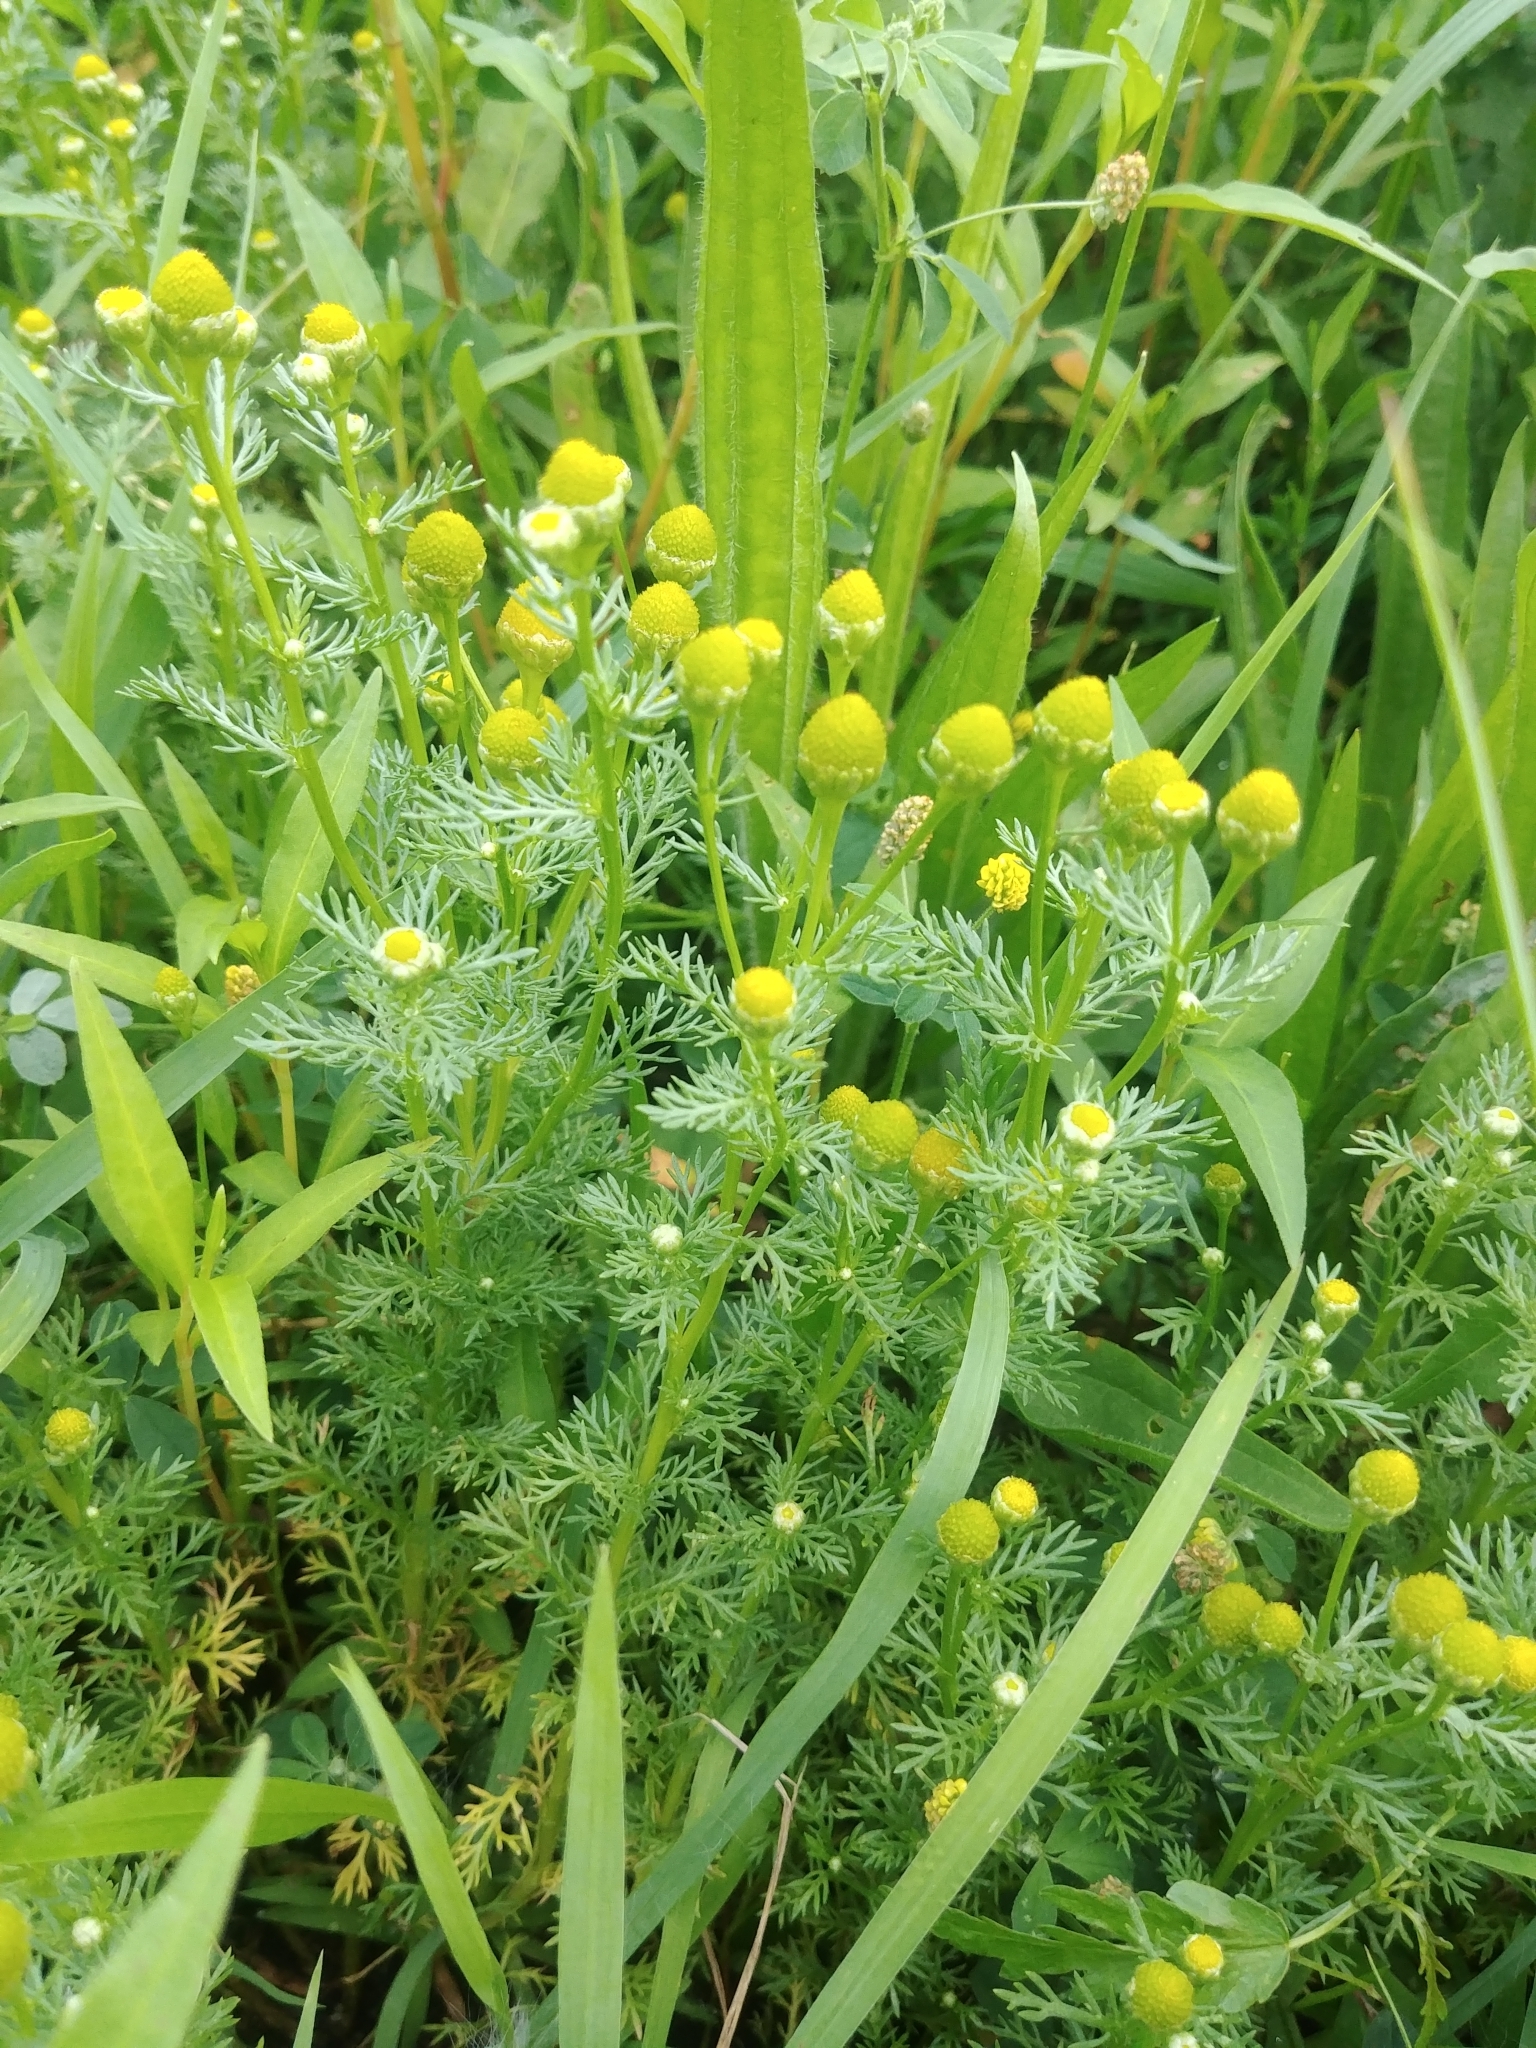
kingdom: Plantae
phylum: Tracheophyta
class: Magnoliopsida
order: Asterales
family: Asteraceae
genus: Matricaria
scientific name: Matricaria discoidea
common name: Disc mayweed
